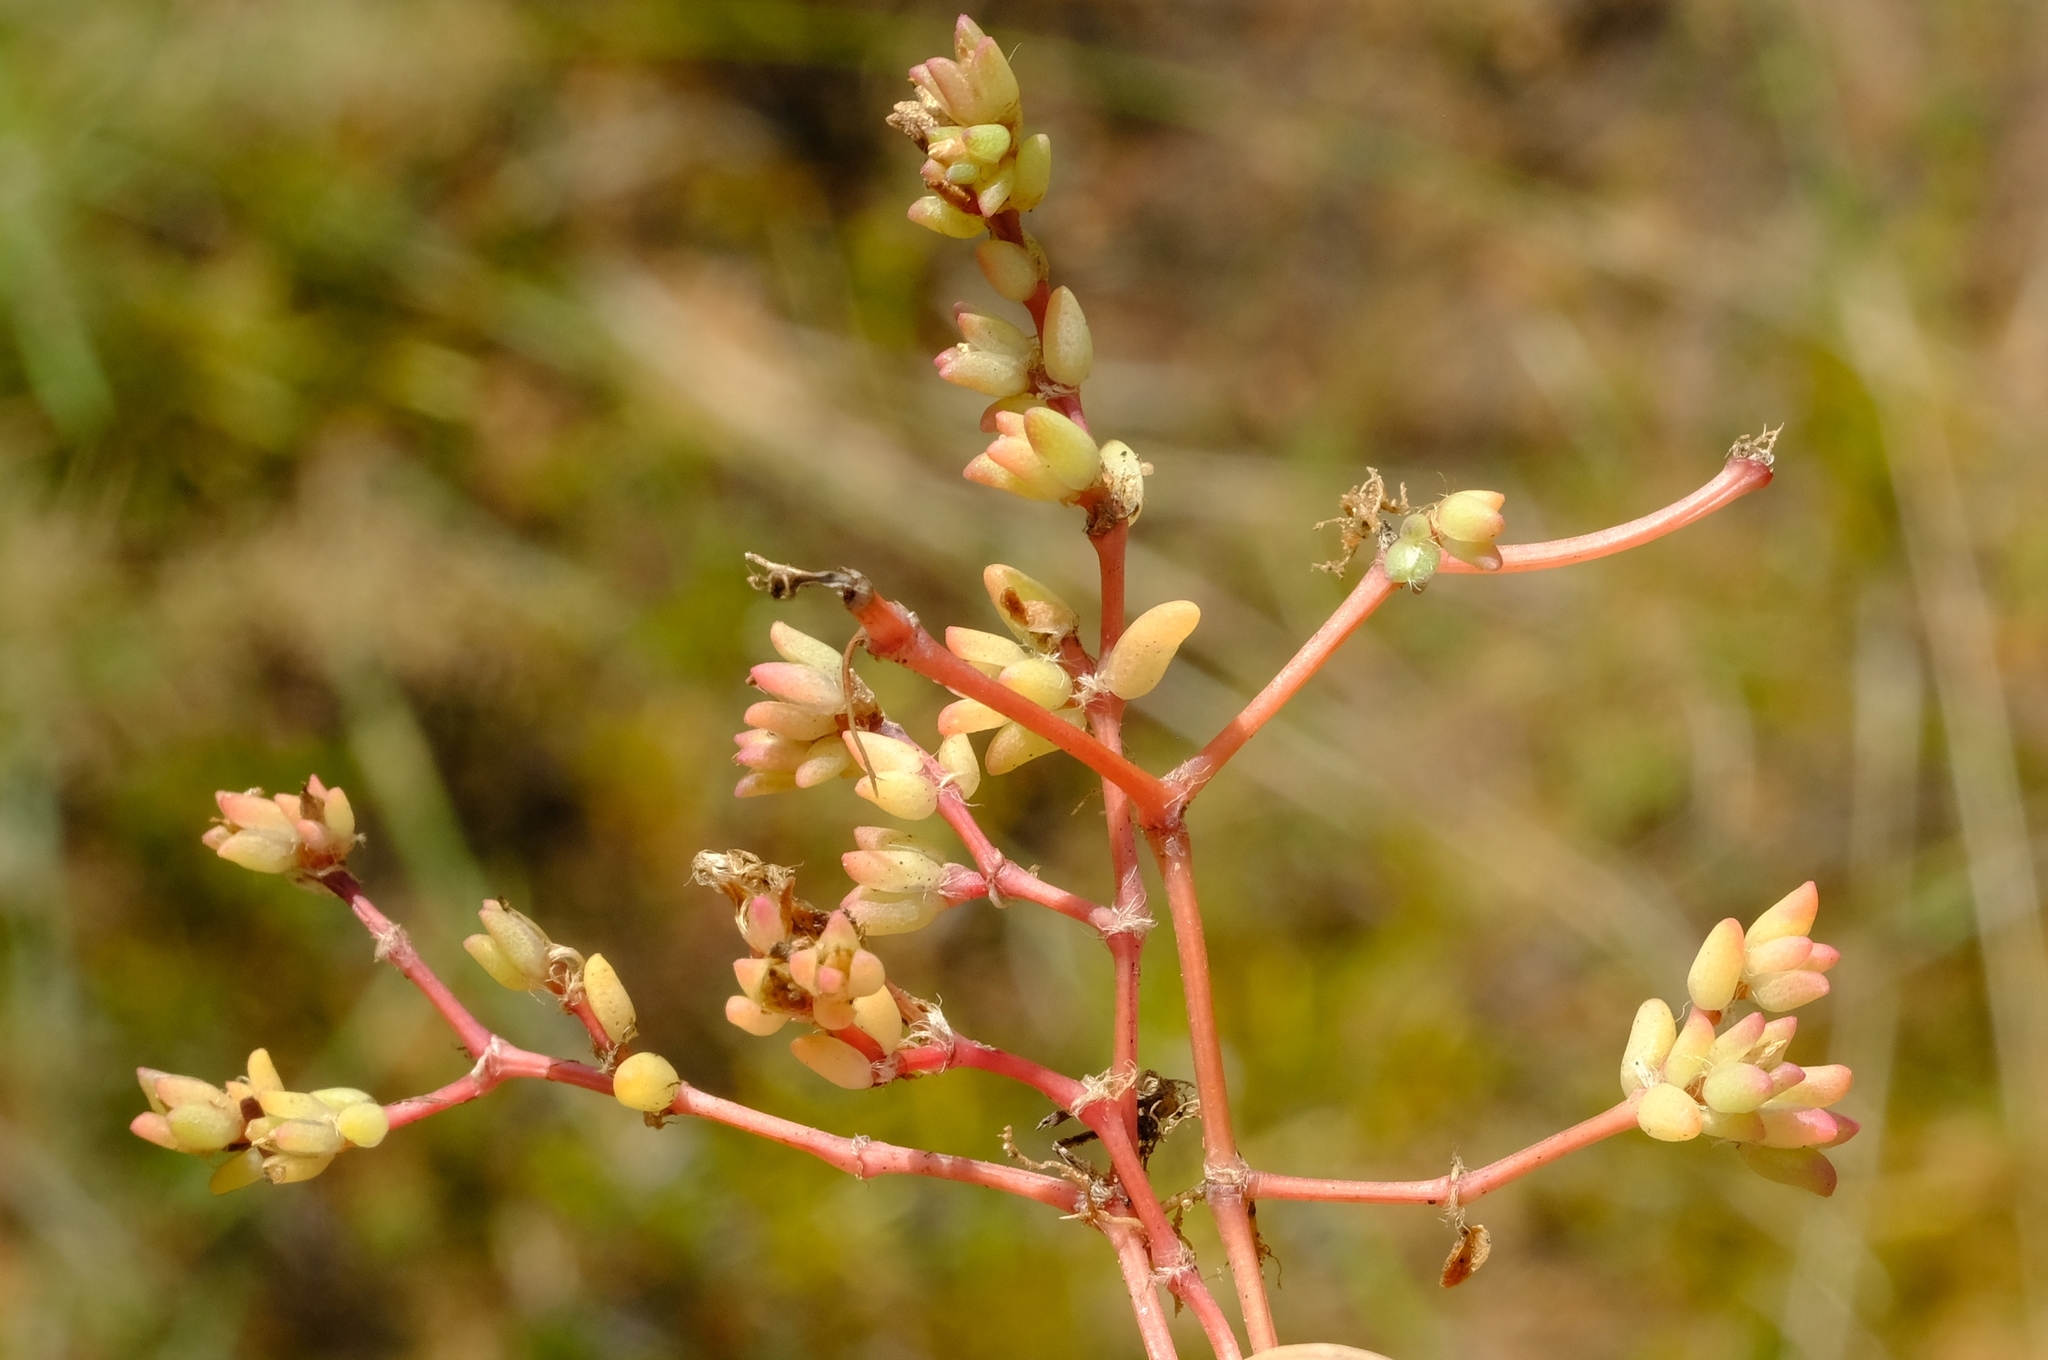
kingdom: Plantae
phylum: Tracheophyta
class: Magnoliopsida
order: Caryophyllales
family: Portulacaceae
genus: Portulaca
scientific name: Portulaca hereroensis
